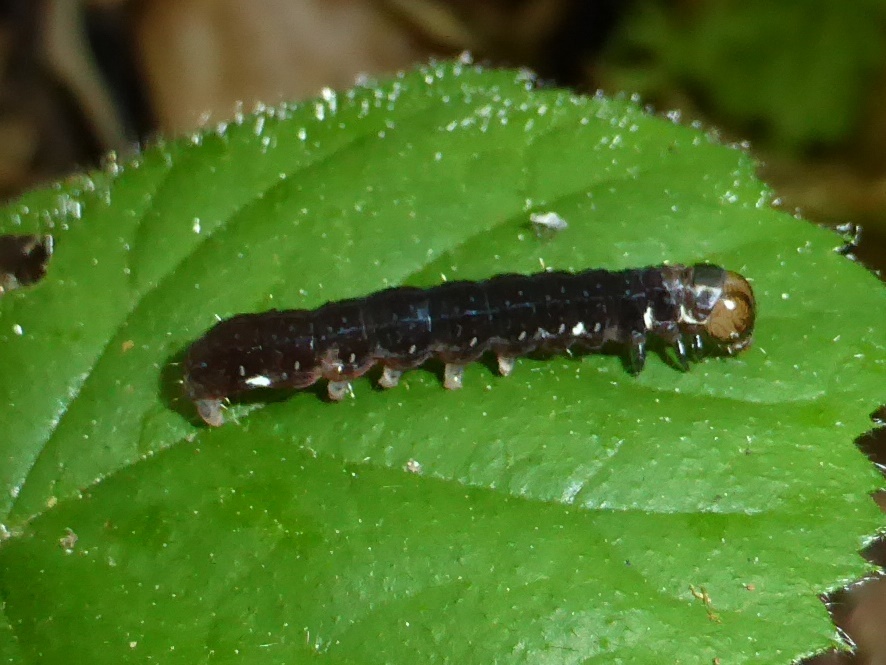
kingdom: Animalia
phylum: Arthropoda
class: Insecta
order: Lepidoptera
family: Noctuidae
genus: Eupsilia
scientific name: Eupsilia transversa
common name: Satellite
